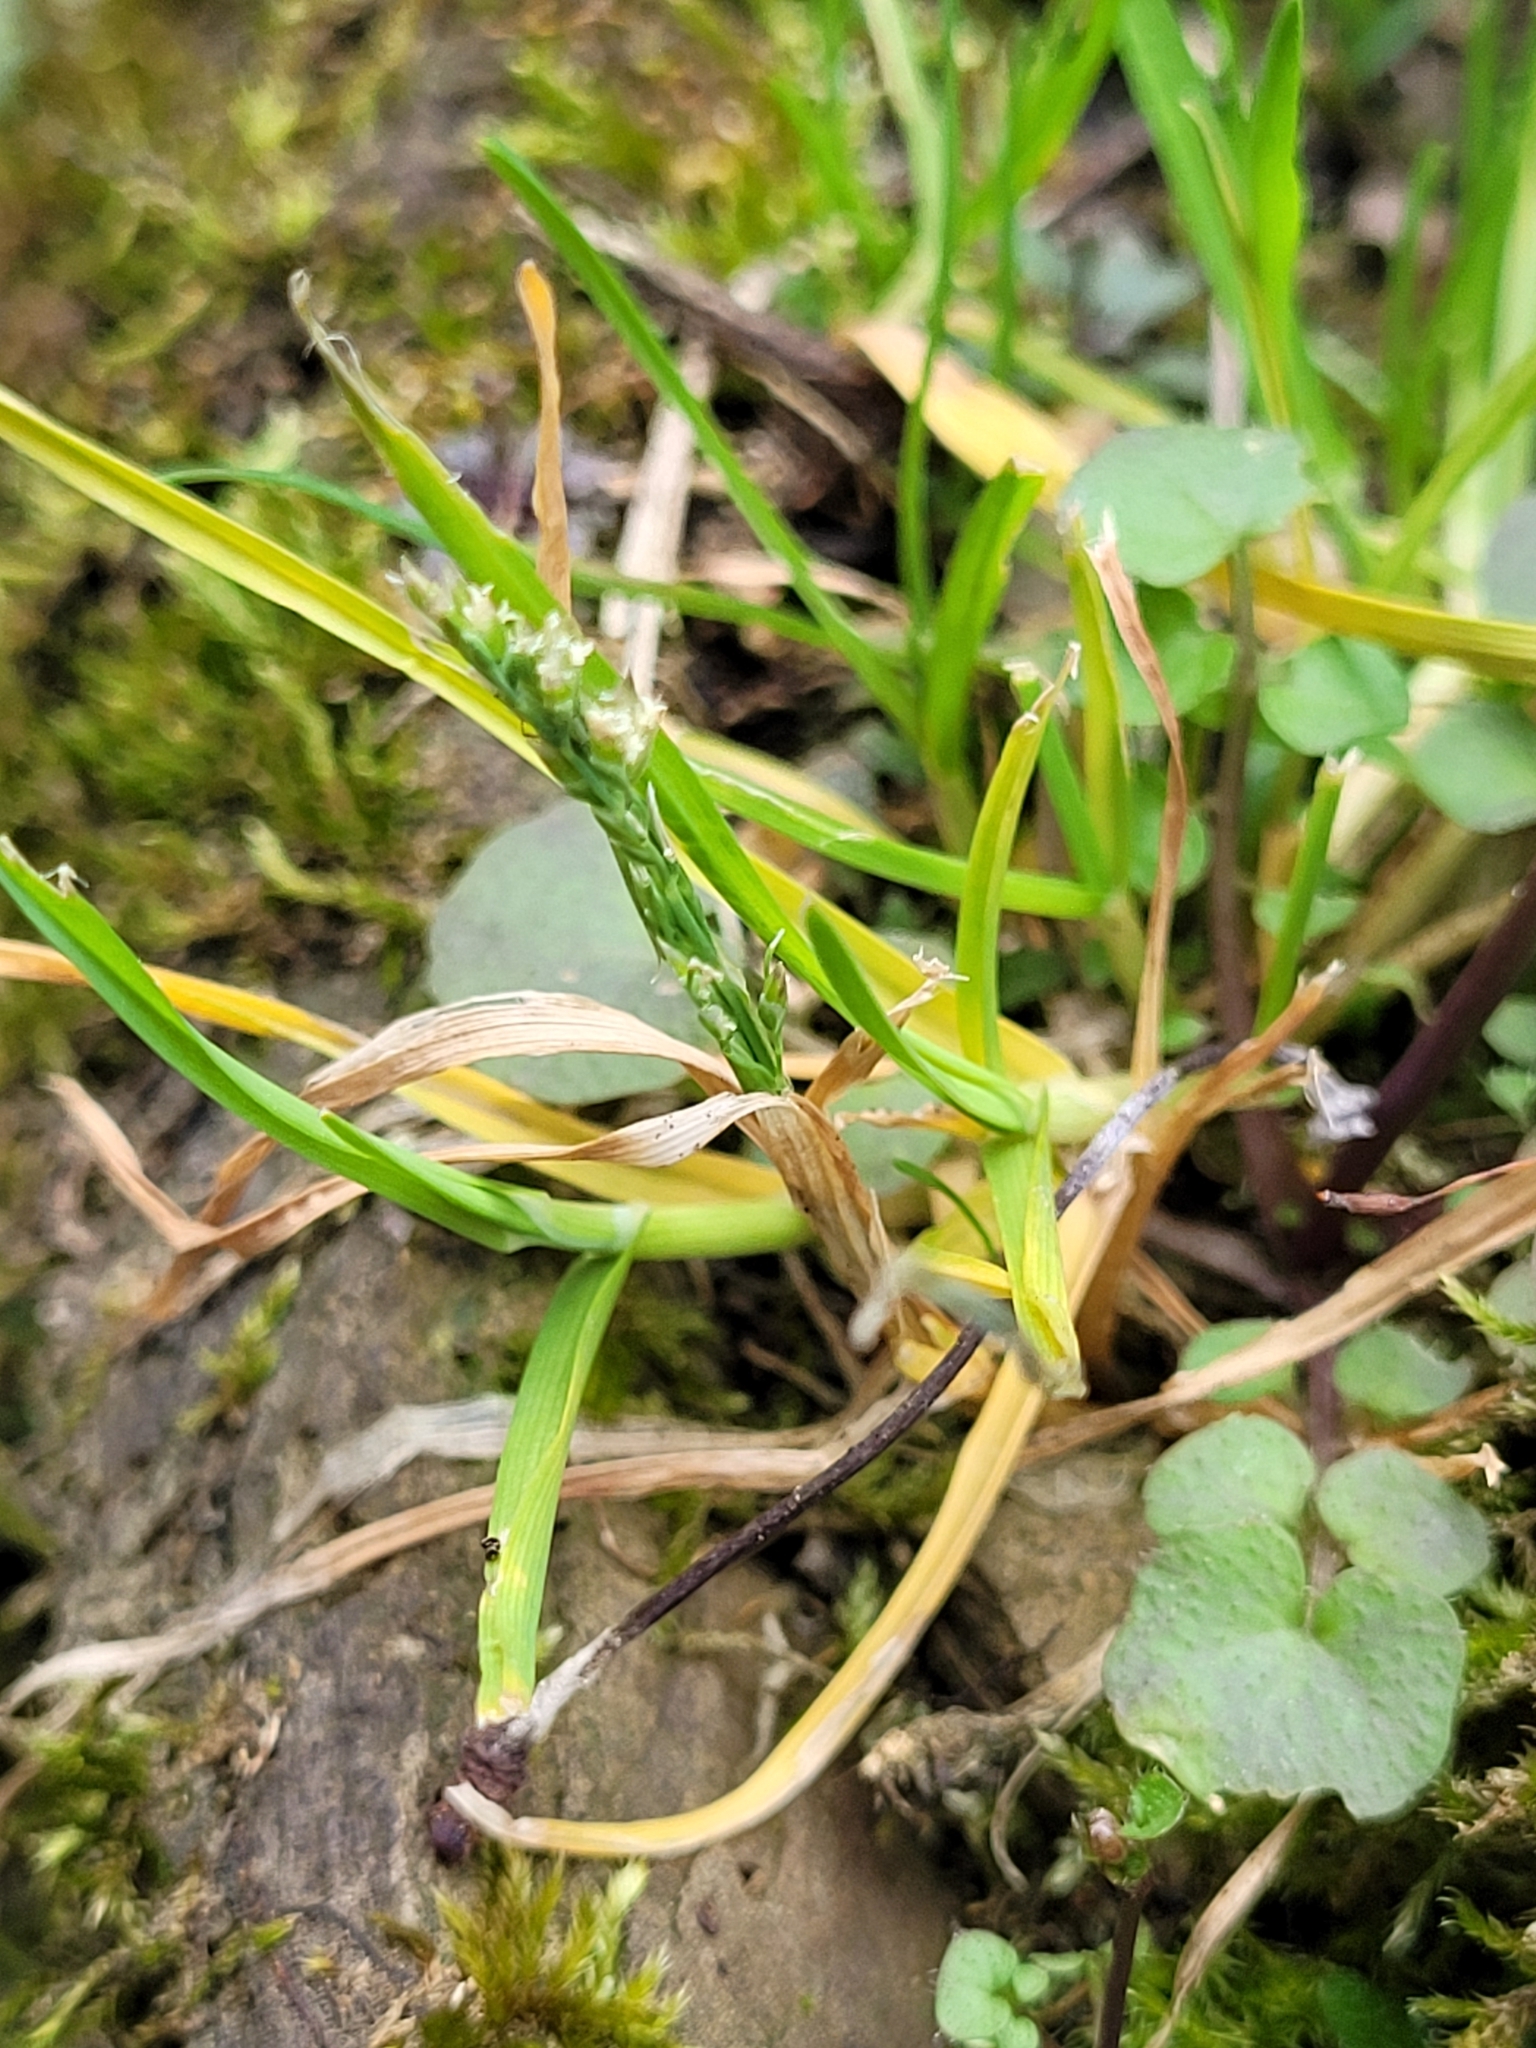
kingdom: Plantae
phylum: Tracheophyta
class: Liliopsida
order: Poales
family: Poaceae
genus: Poa
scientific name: Poa annua
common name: Annual bluegrass
